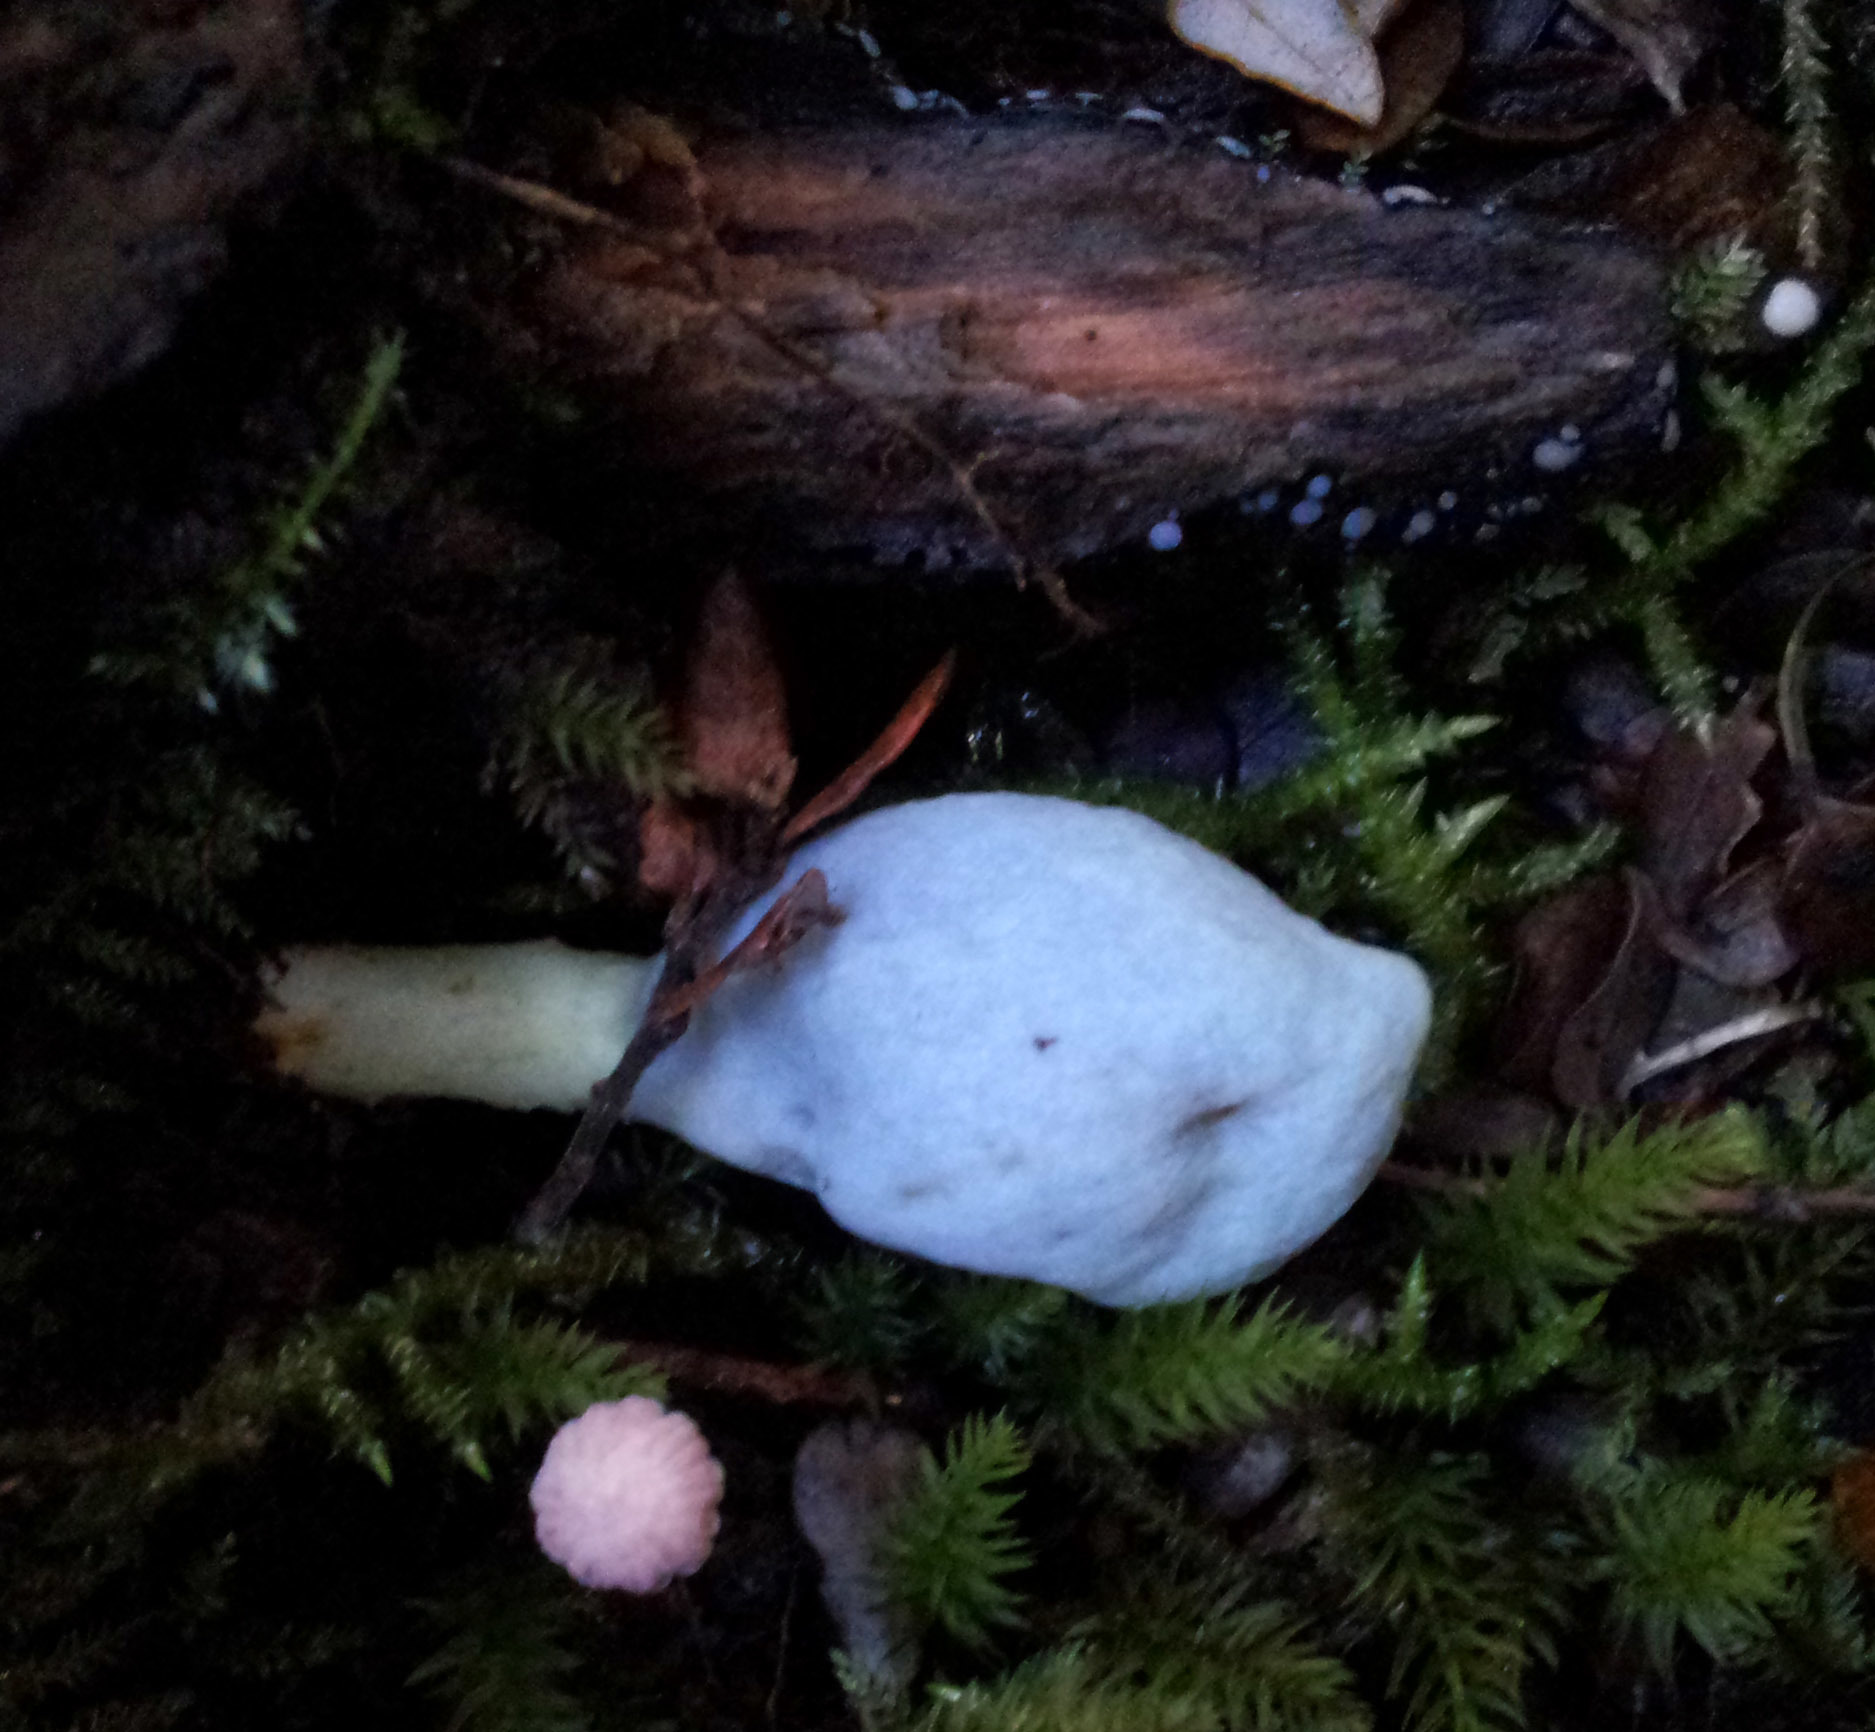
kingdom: Fungi
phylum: Basidiomycota
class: Agaricomycetes
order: Agaricales
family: Agaricaceae
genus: Clavogaster
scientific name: Clavogaster virescens
